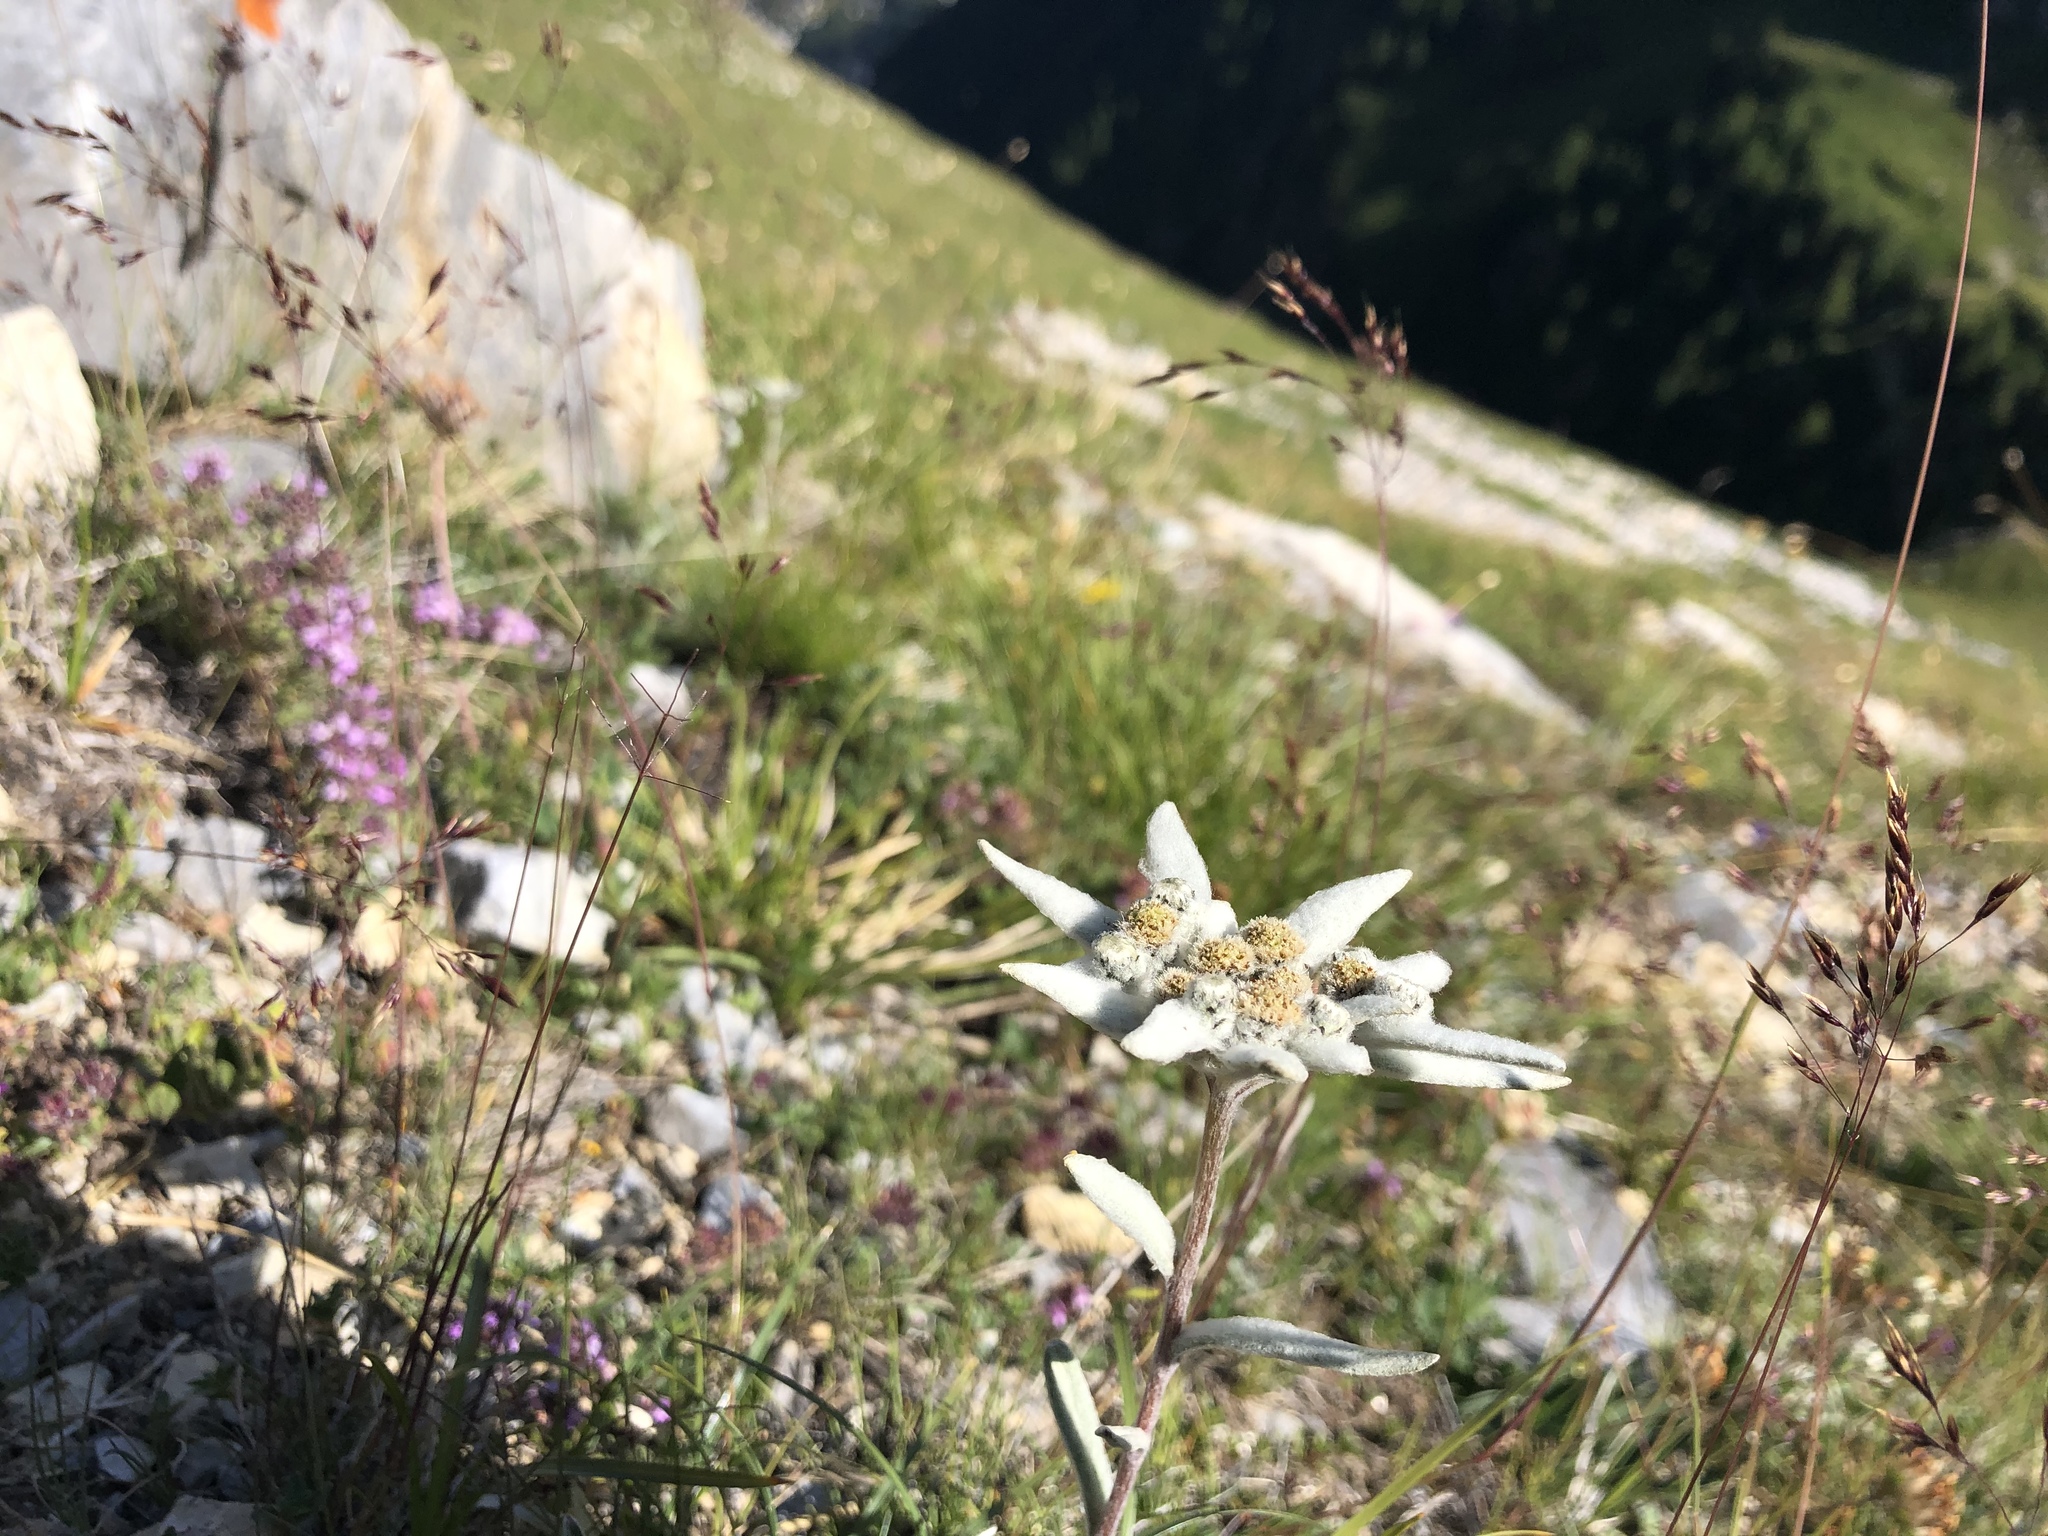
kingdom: Plantae
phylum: Tracheophyta
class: Magnoliopsida
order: Asterales
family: Asteraceae
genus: Leontopodium
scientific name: Leontopodium nivale
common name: Edelweiss
